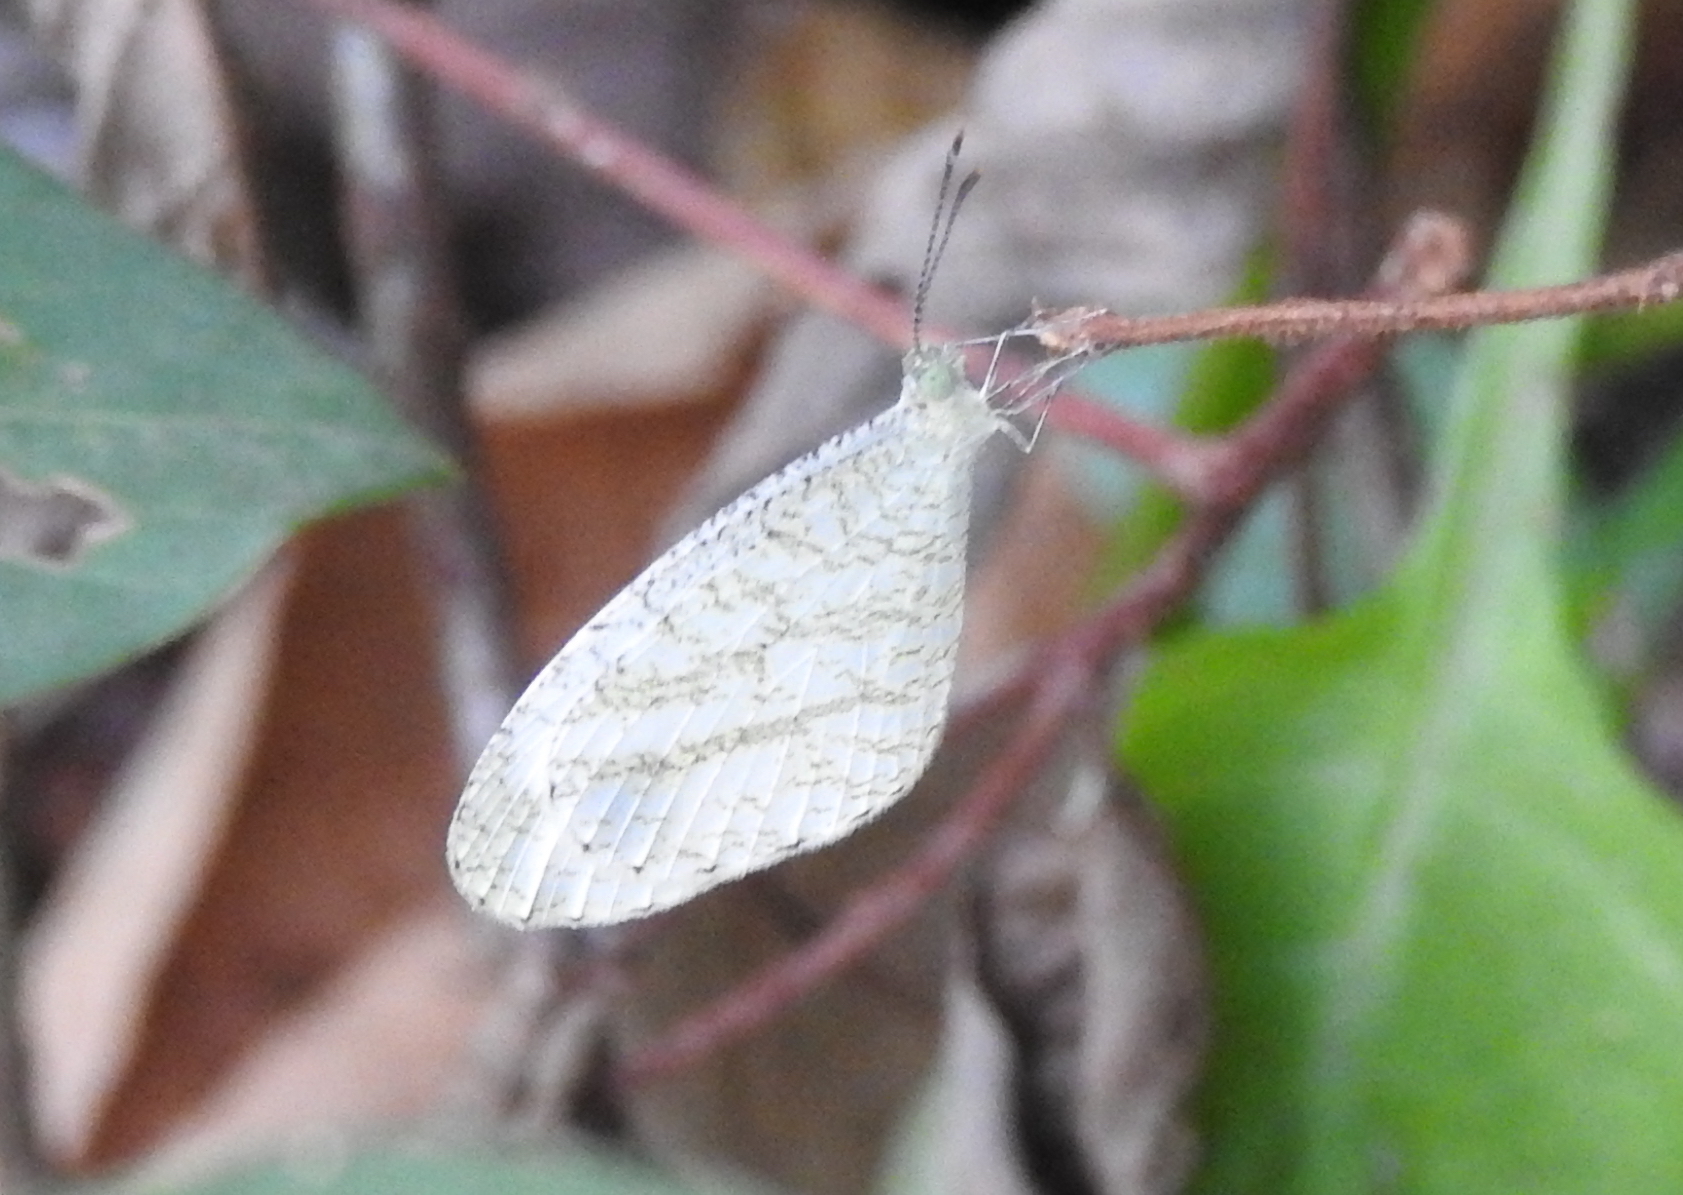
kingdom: Animalia
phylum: Arthropoda
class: Insecta
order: Lepidoptera
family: Pieridae
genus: Leptosia
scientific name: Leptosia nina
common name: Psyche
